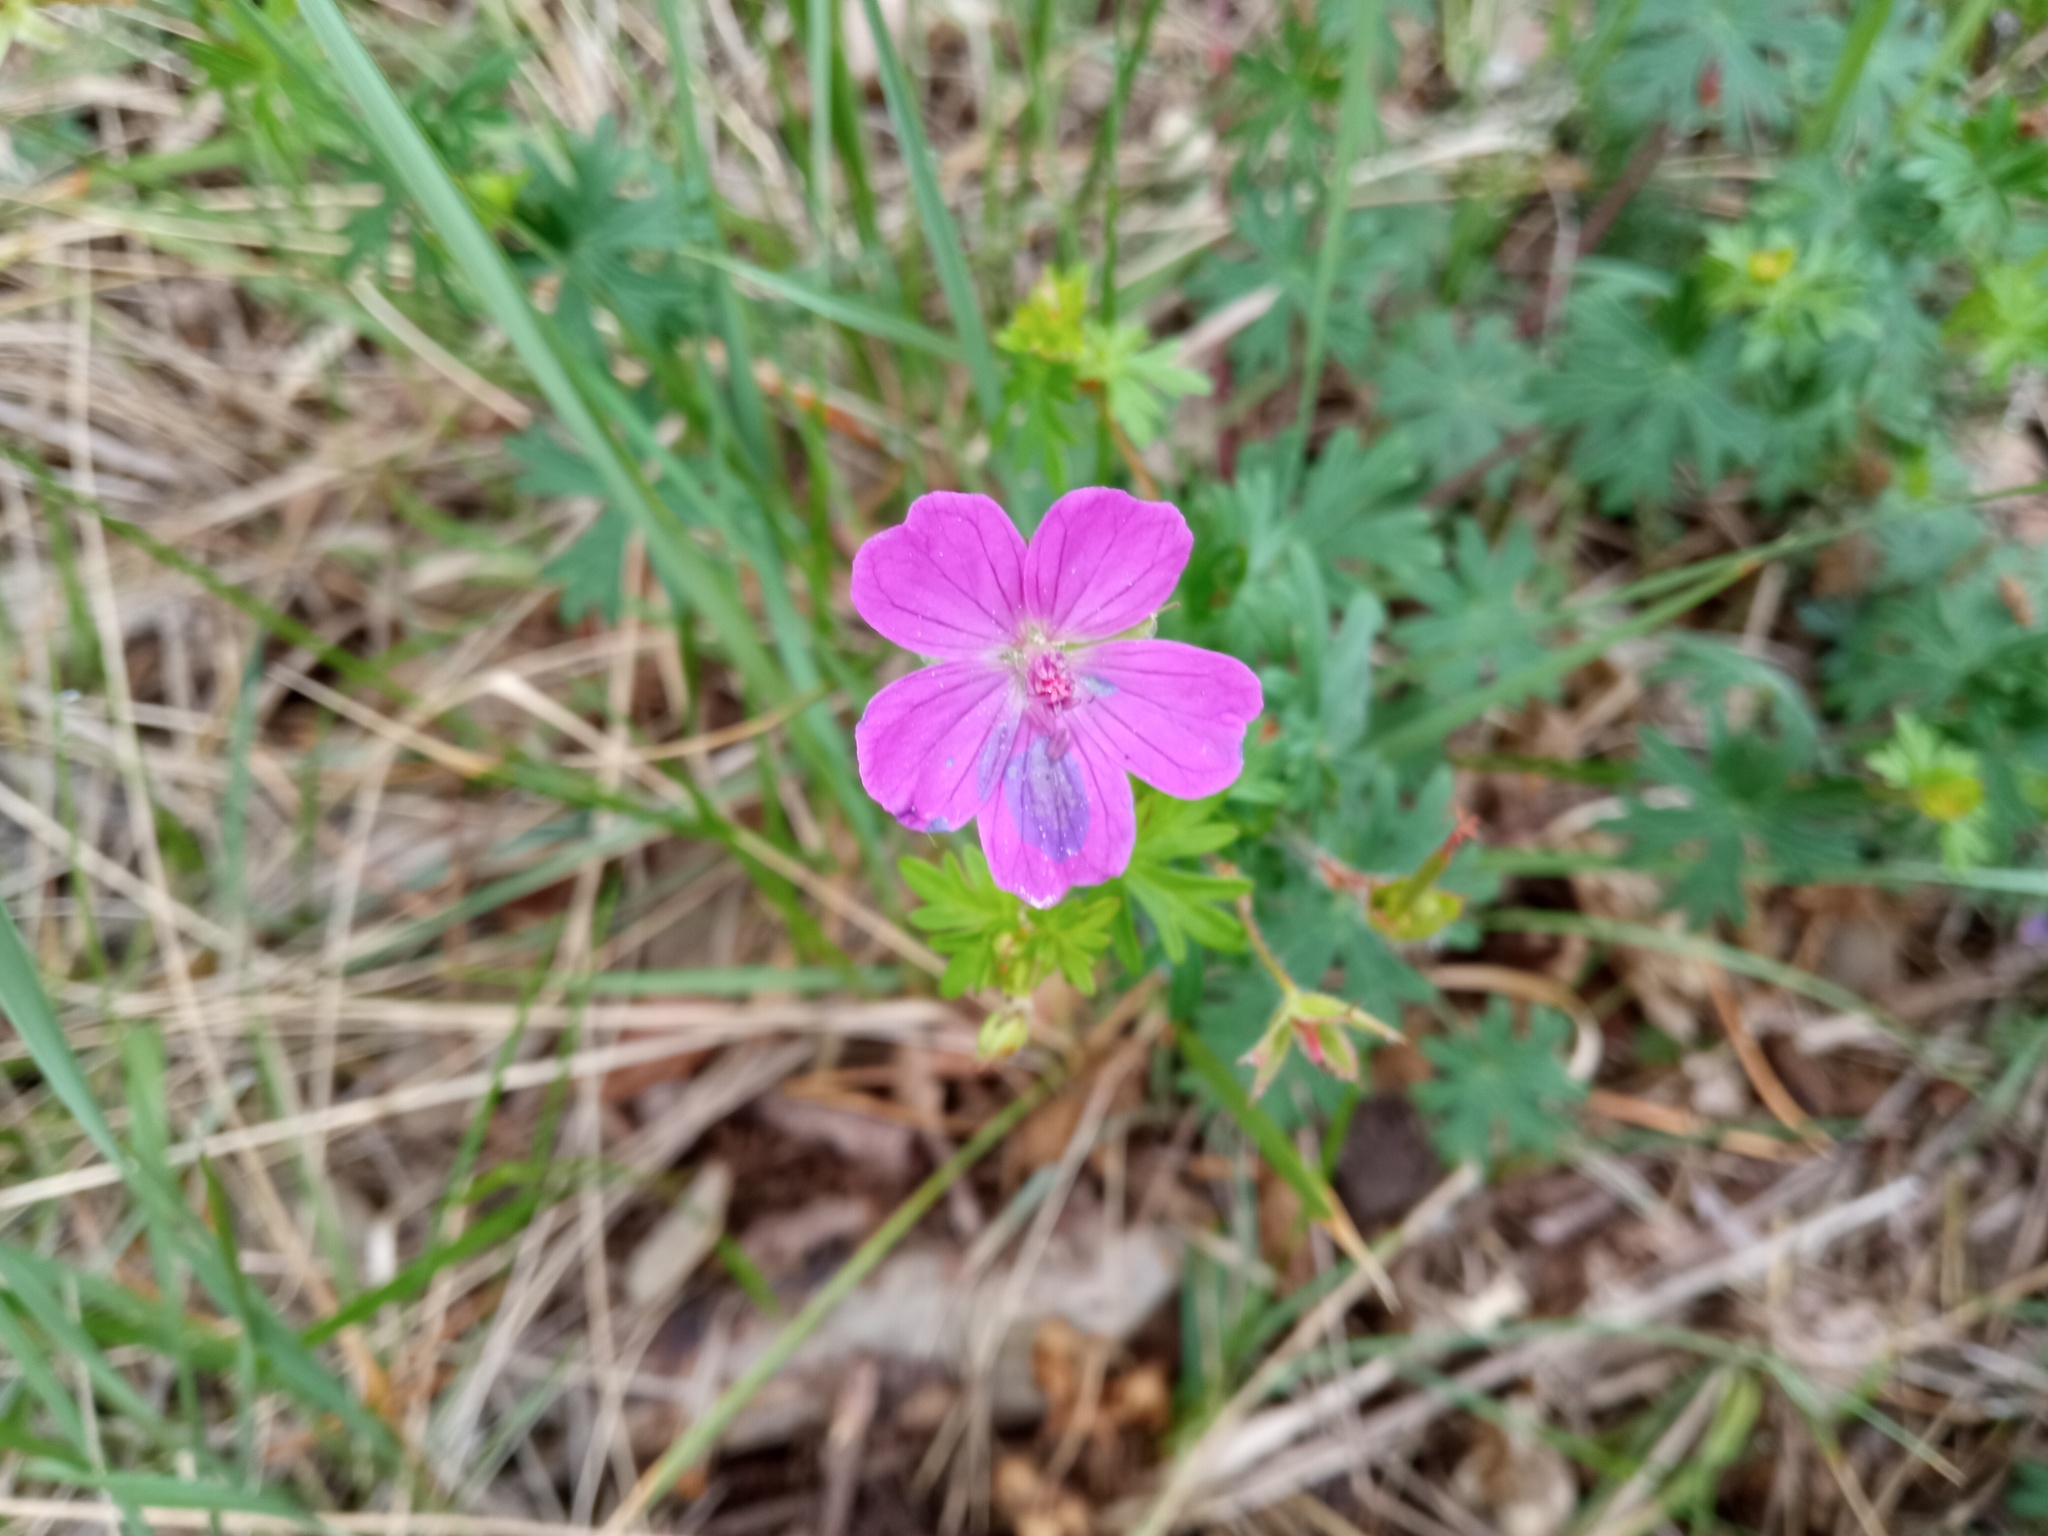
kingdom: Plantae
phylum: Tracheophyta
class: Magnoliopsida
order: Geraniales
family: Geraniaceae
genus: Geranium
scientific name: Geranium sanguineum
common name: Bloody crane's-bill
